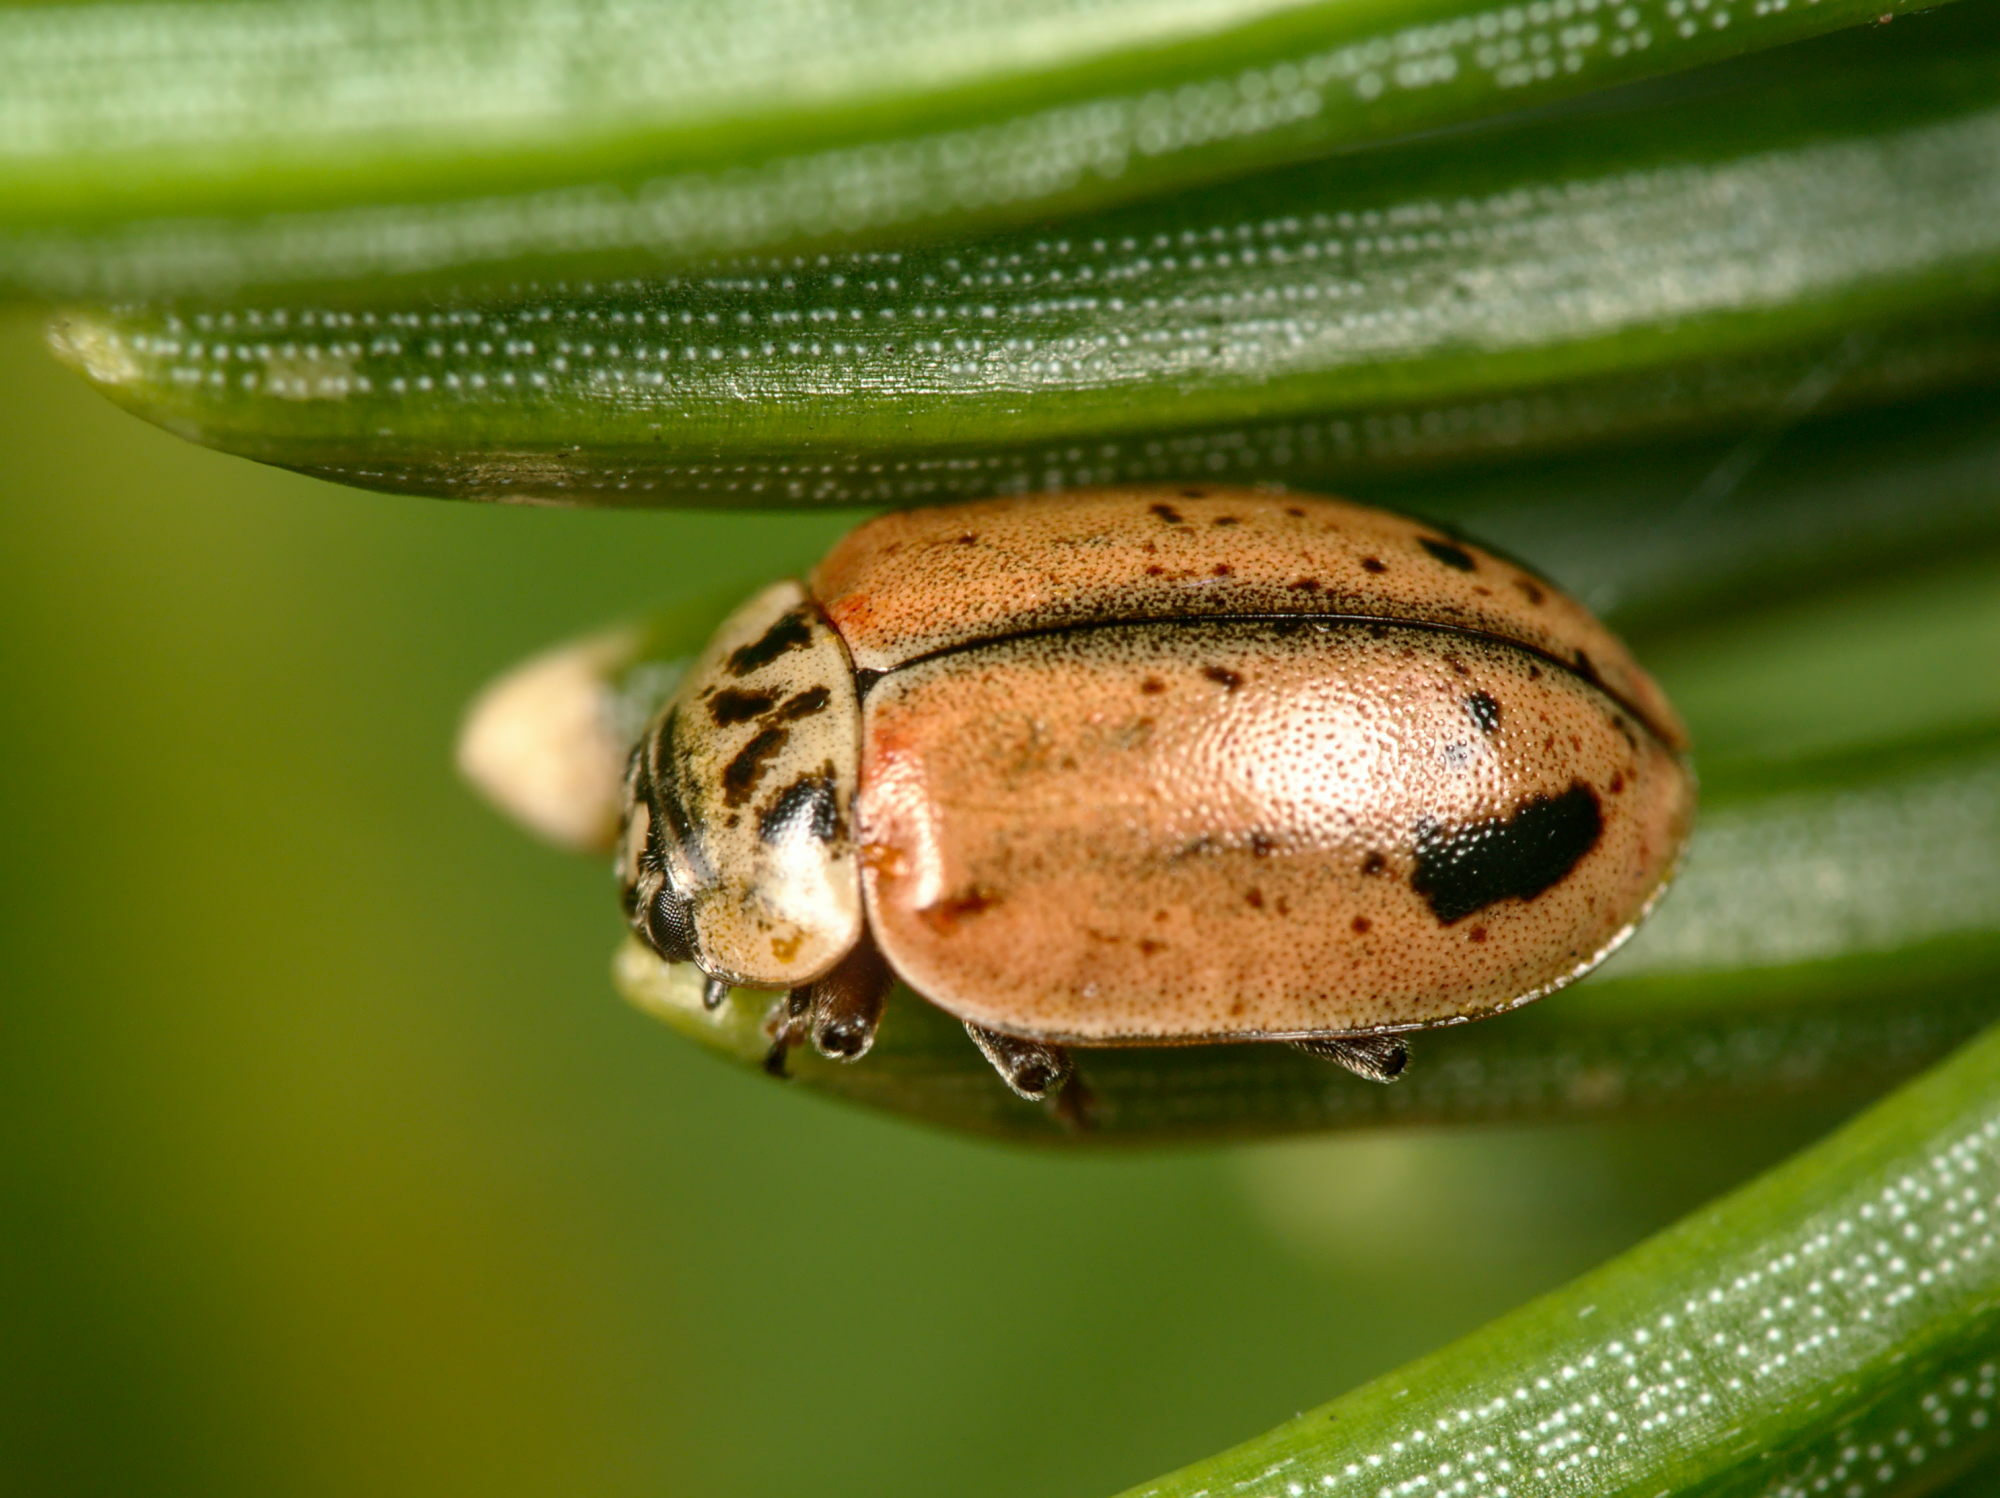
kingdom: Animalia
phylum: Arthropoda
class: Insecta
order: Coleoptera
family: Coccinellidae
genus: Aphidecta
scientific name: Aphidecta obliterata
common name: Larch ladybird
